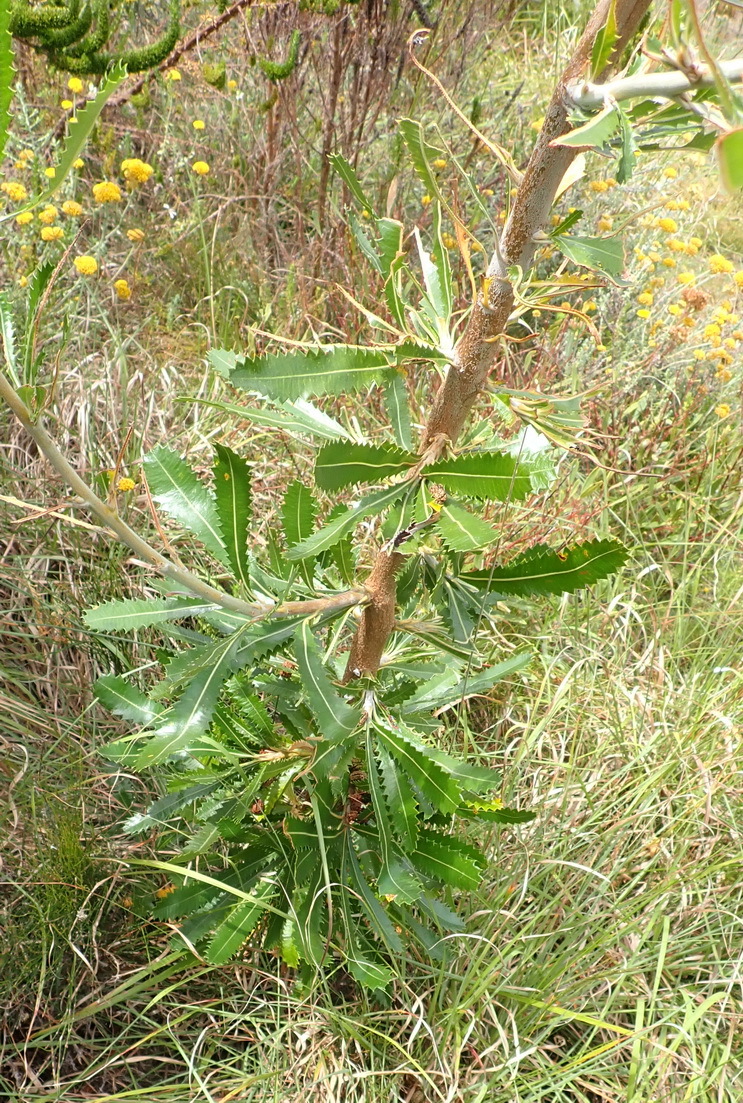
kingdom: Plantae
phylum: Tracheophyta
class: Magnoliopsida
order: Proteales
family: Proteaceae
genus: Banksia
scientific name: Banksia baueri
